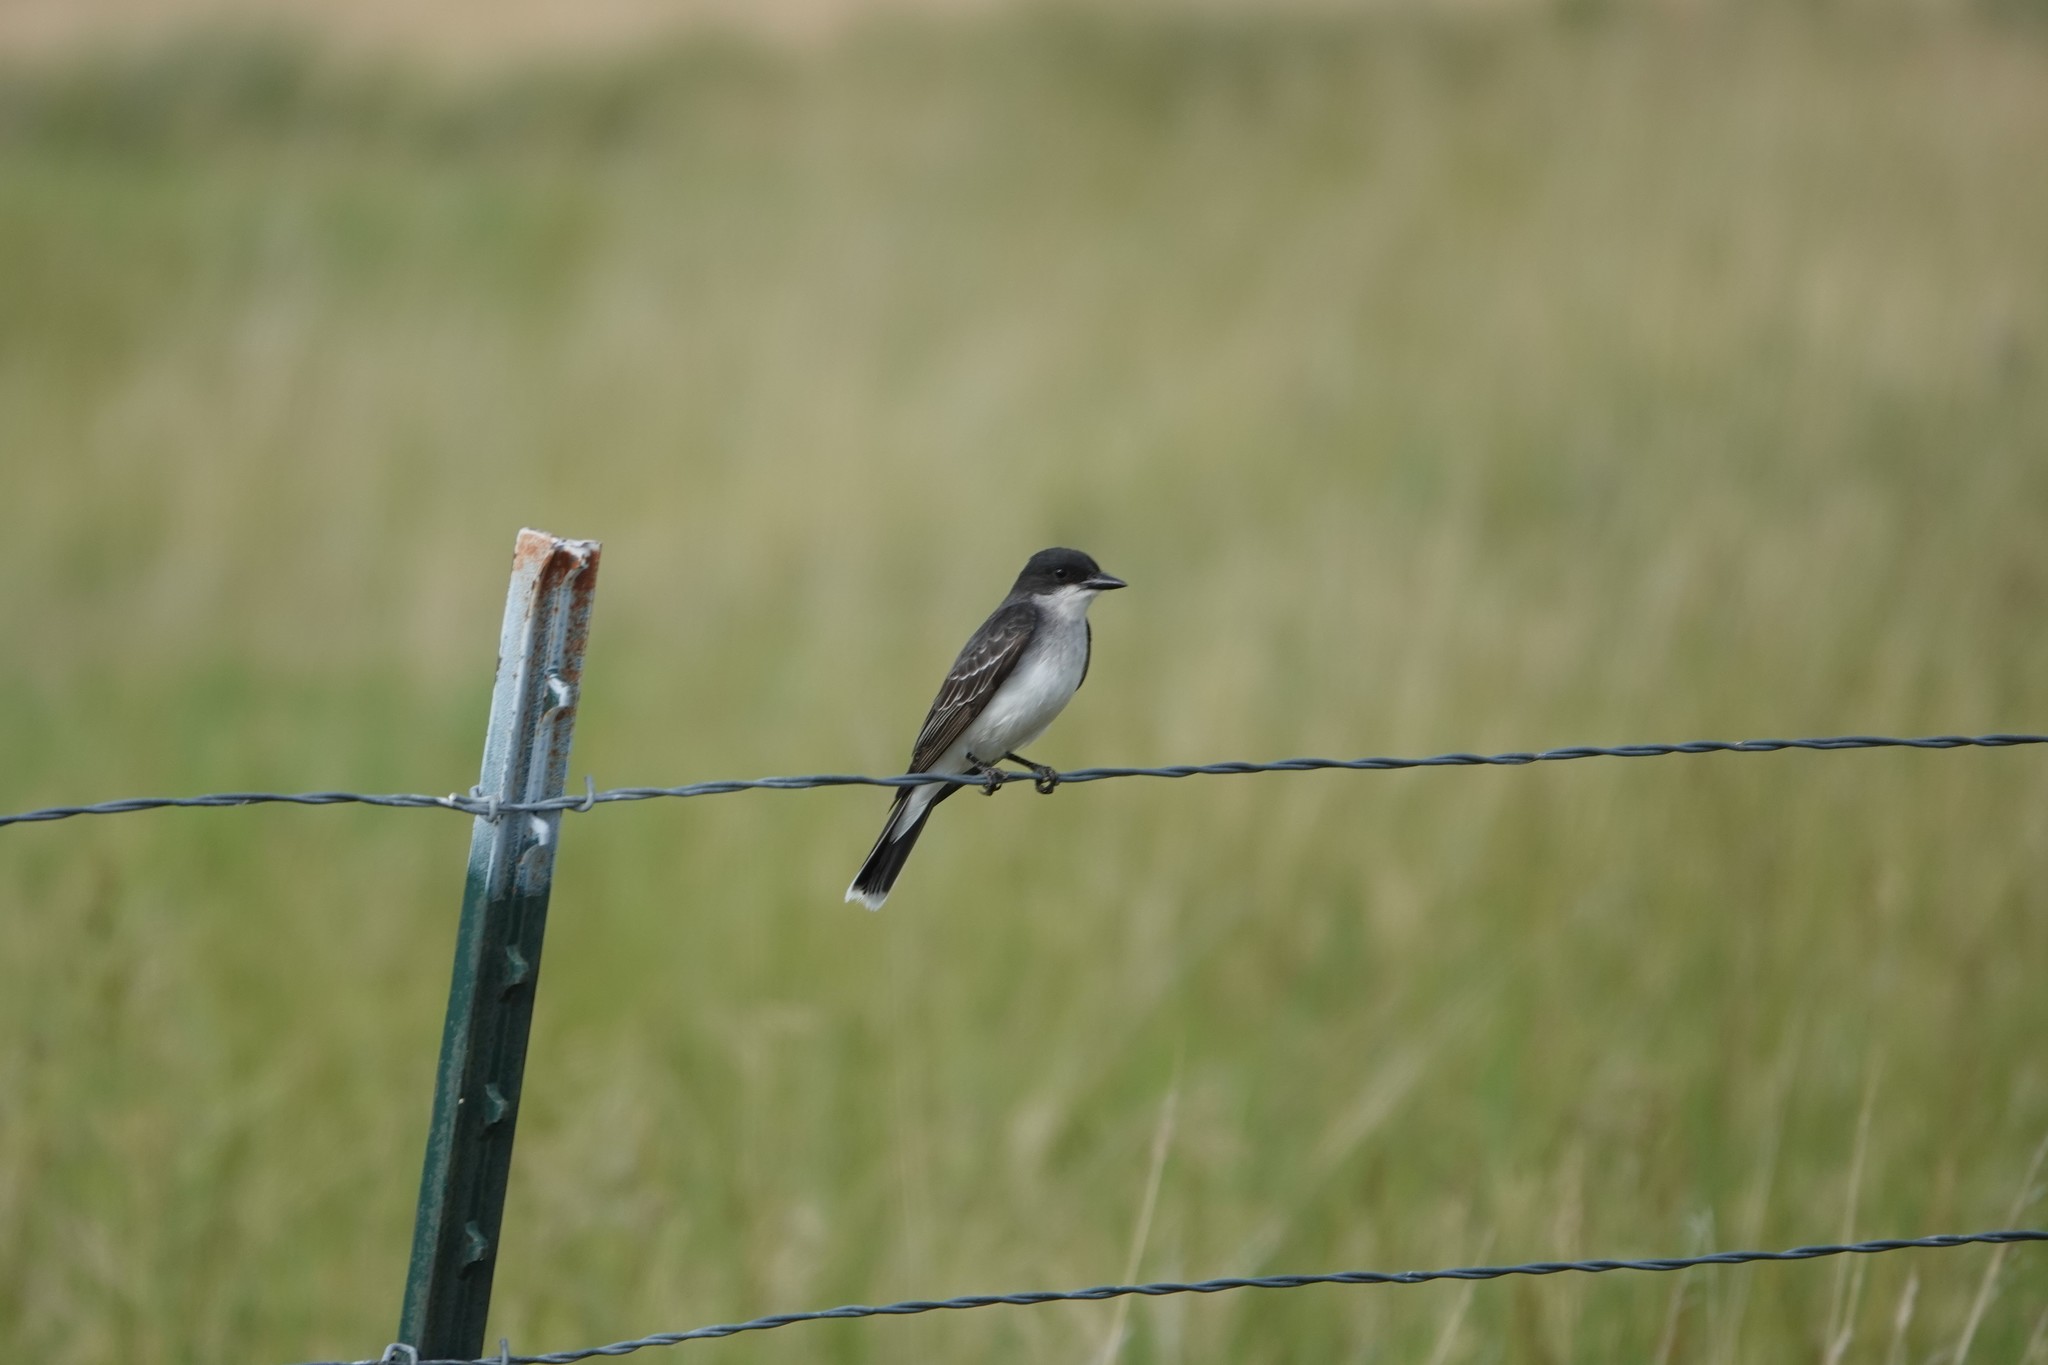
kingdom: Animalia
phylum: Chordata
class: Aves
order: Passeriformes
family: Tyrannidae
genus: Tyrannus
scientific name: Tyrannus tyrannus
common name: Eastern kingbird
